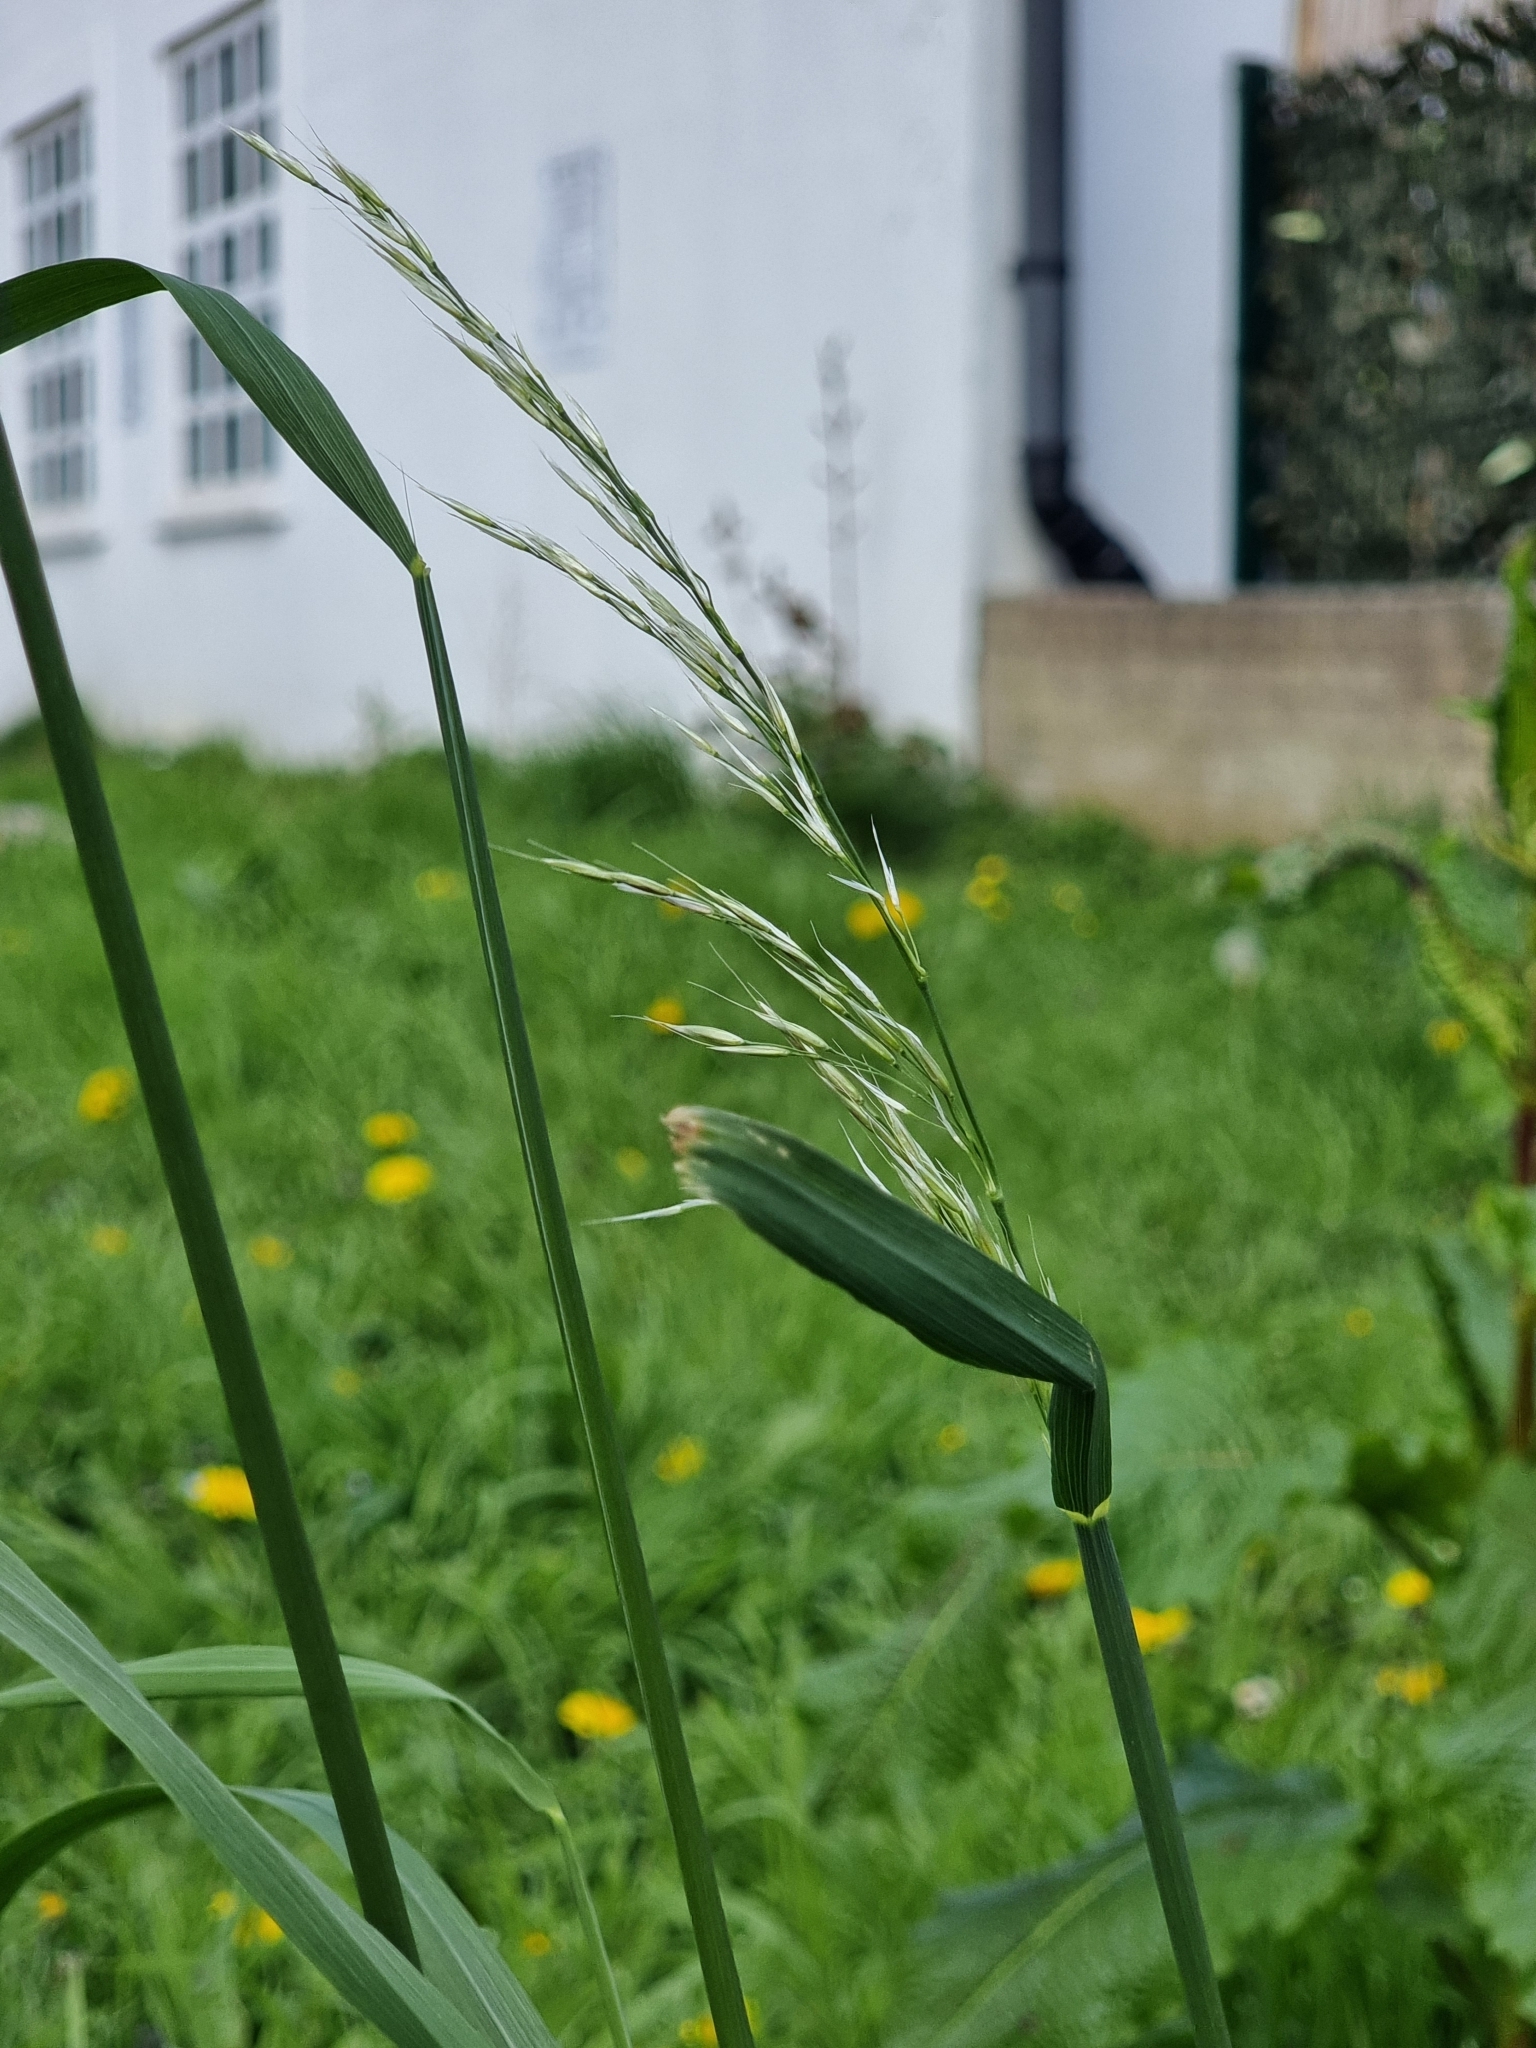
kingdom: Plantae
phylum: Tracheophyta
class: Liliopsida
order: Poales
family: Poaceae
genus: Arrhenatherum
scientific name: Arrhenatherum elatius
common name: Tall oatgrass
